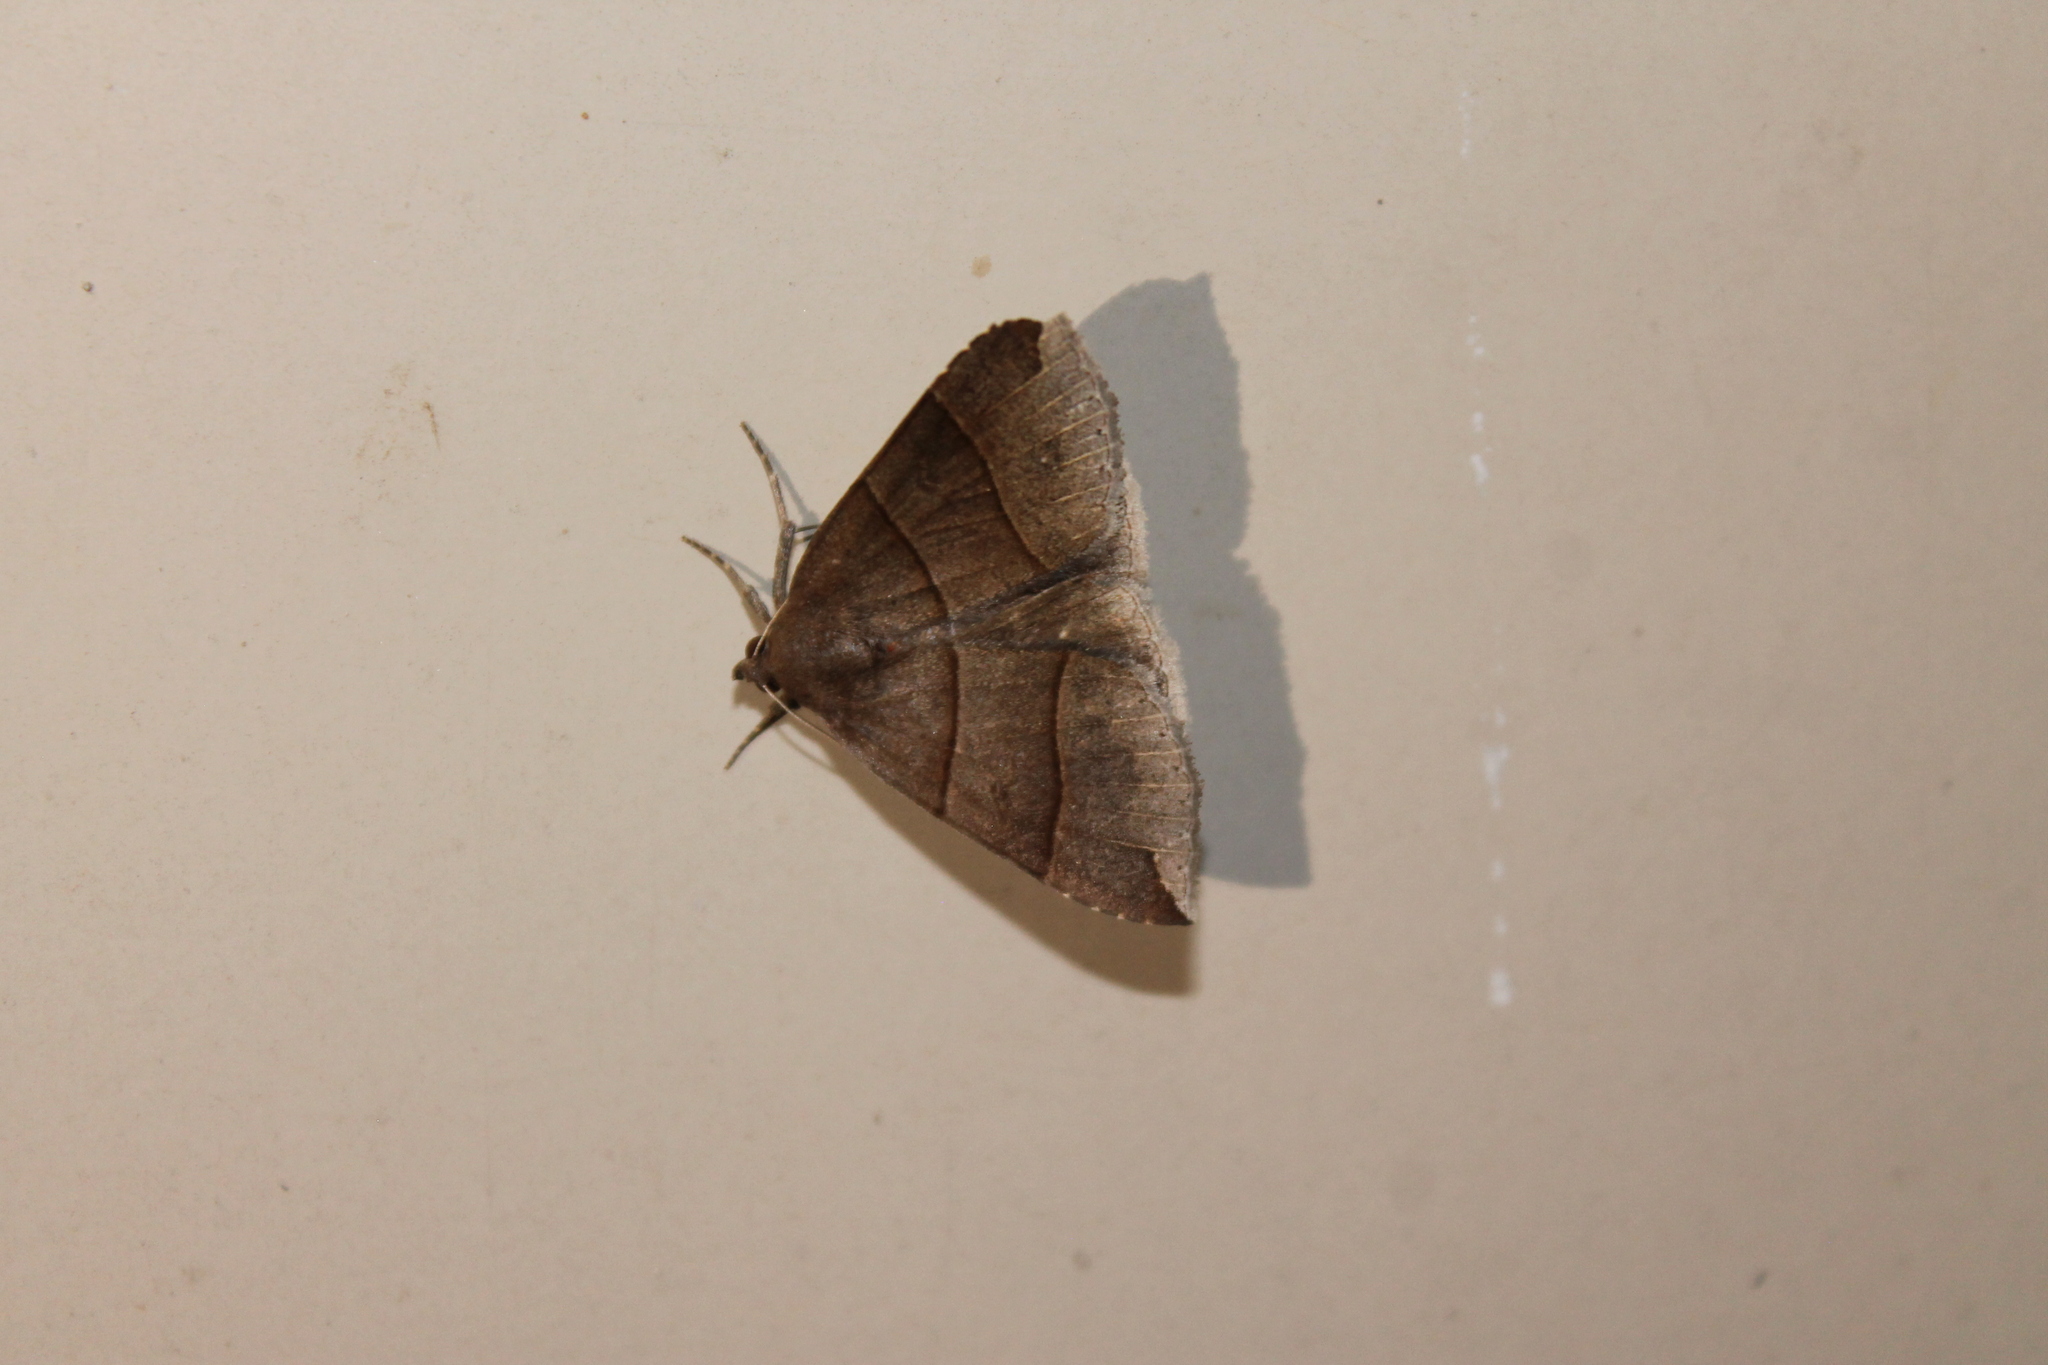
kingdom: Animalia
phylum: Arthropoda
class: Insecta
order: Lepidoptera
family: Erebidae
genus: Parallelia
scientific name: Parallelia bistriaris
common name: Maple looper moth
